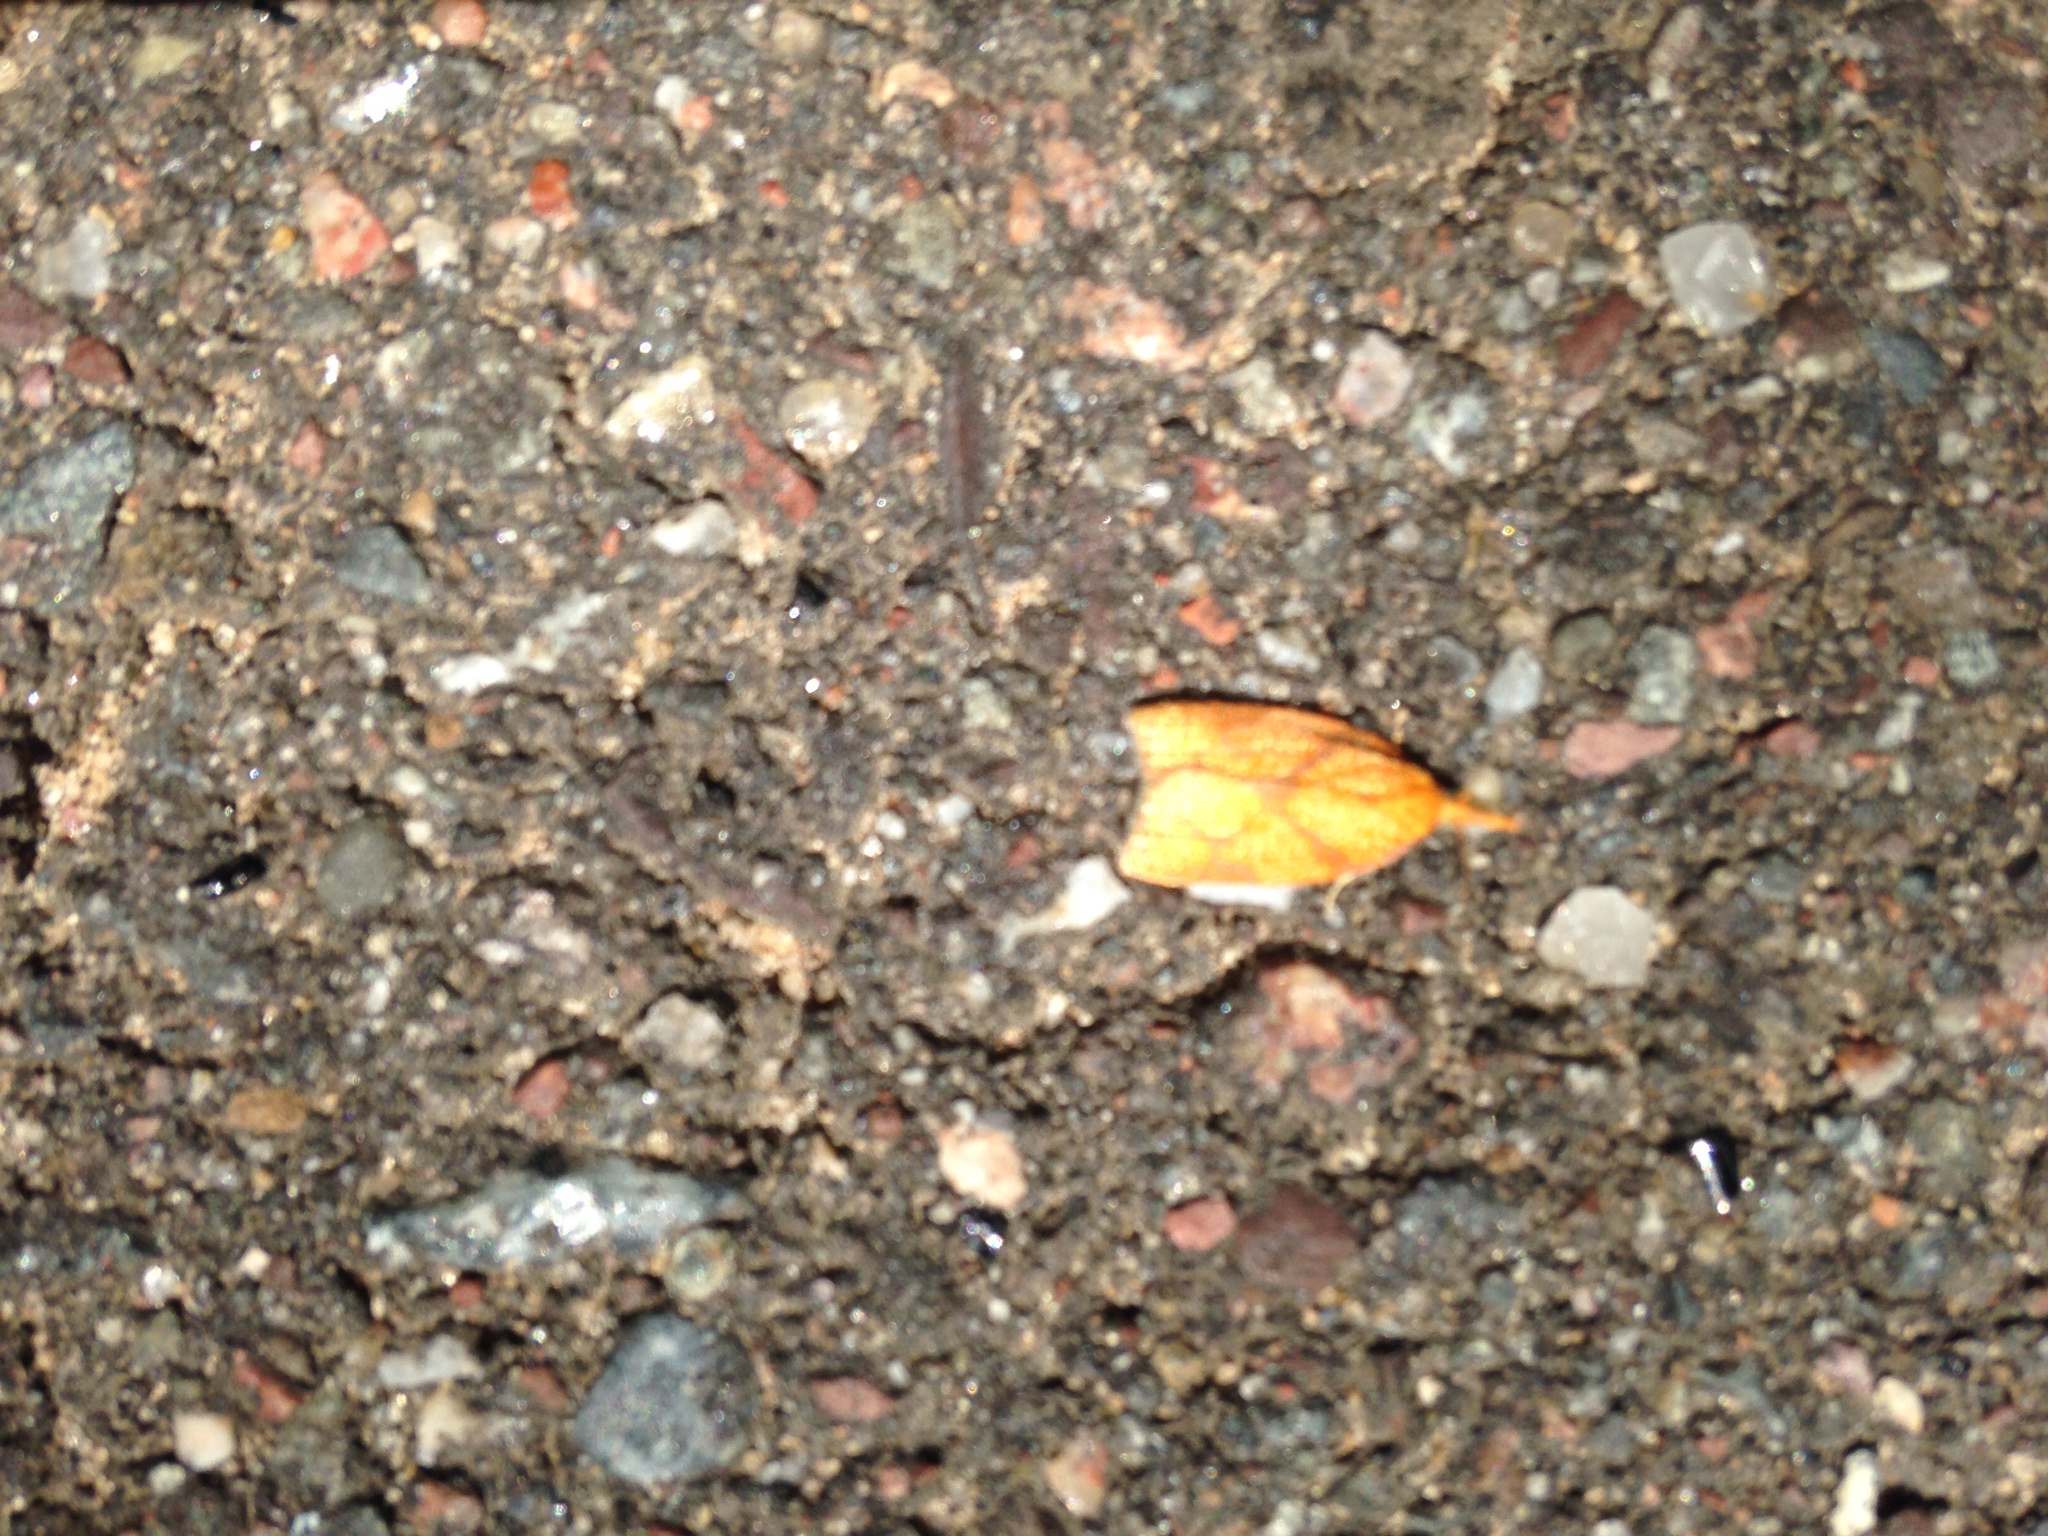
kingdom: Animalia
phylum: Arthropoda
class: Insecta
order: Lepidoptera
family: Tortricidae
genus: Cenopis
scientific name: Cenopis reticulatana
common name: Reticulated fruitworm moth
